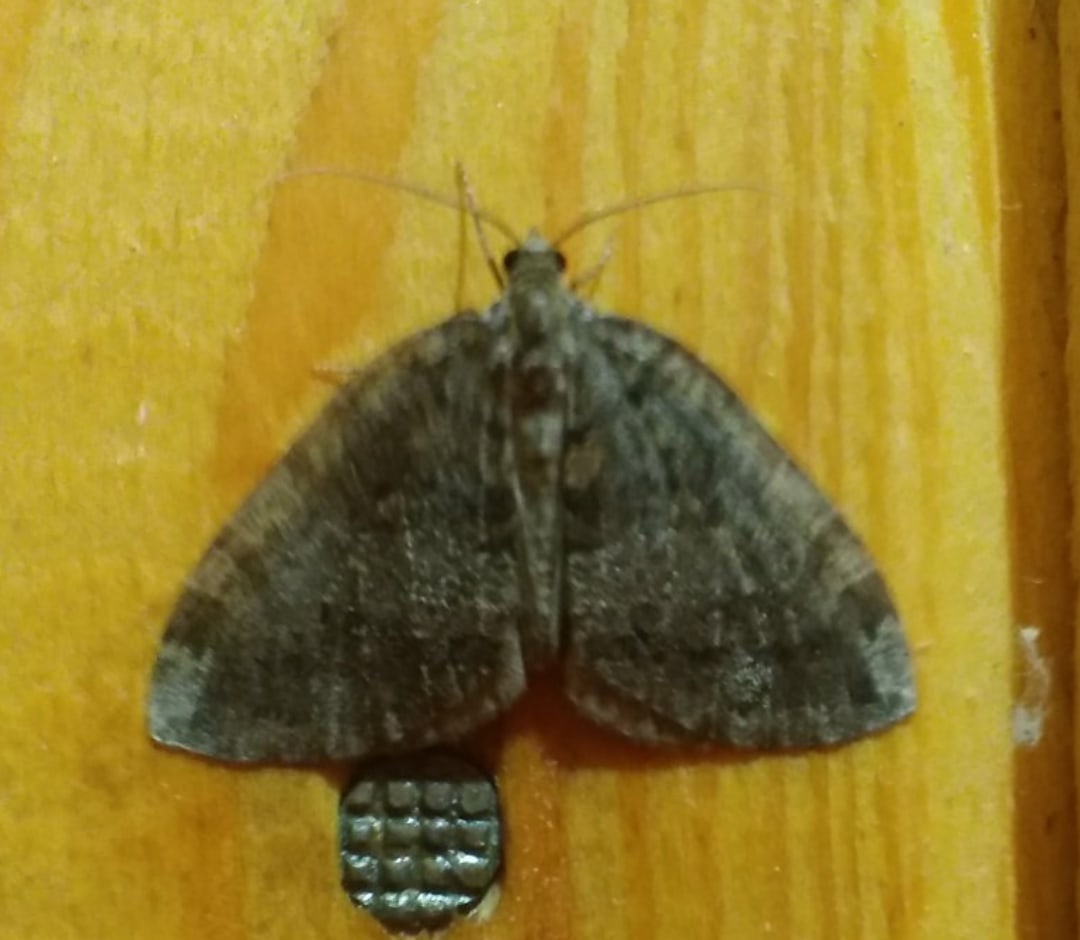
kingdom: Animalia
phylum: Arthropoda
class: Insecta
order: Lepidoptera
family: Geometridae
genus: Hydriomena
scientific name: Hydriomena furcata
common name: July highflyer
